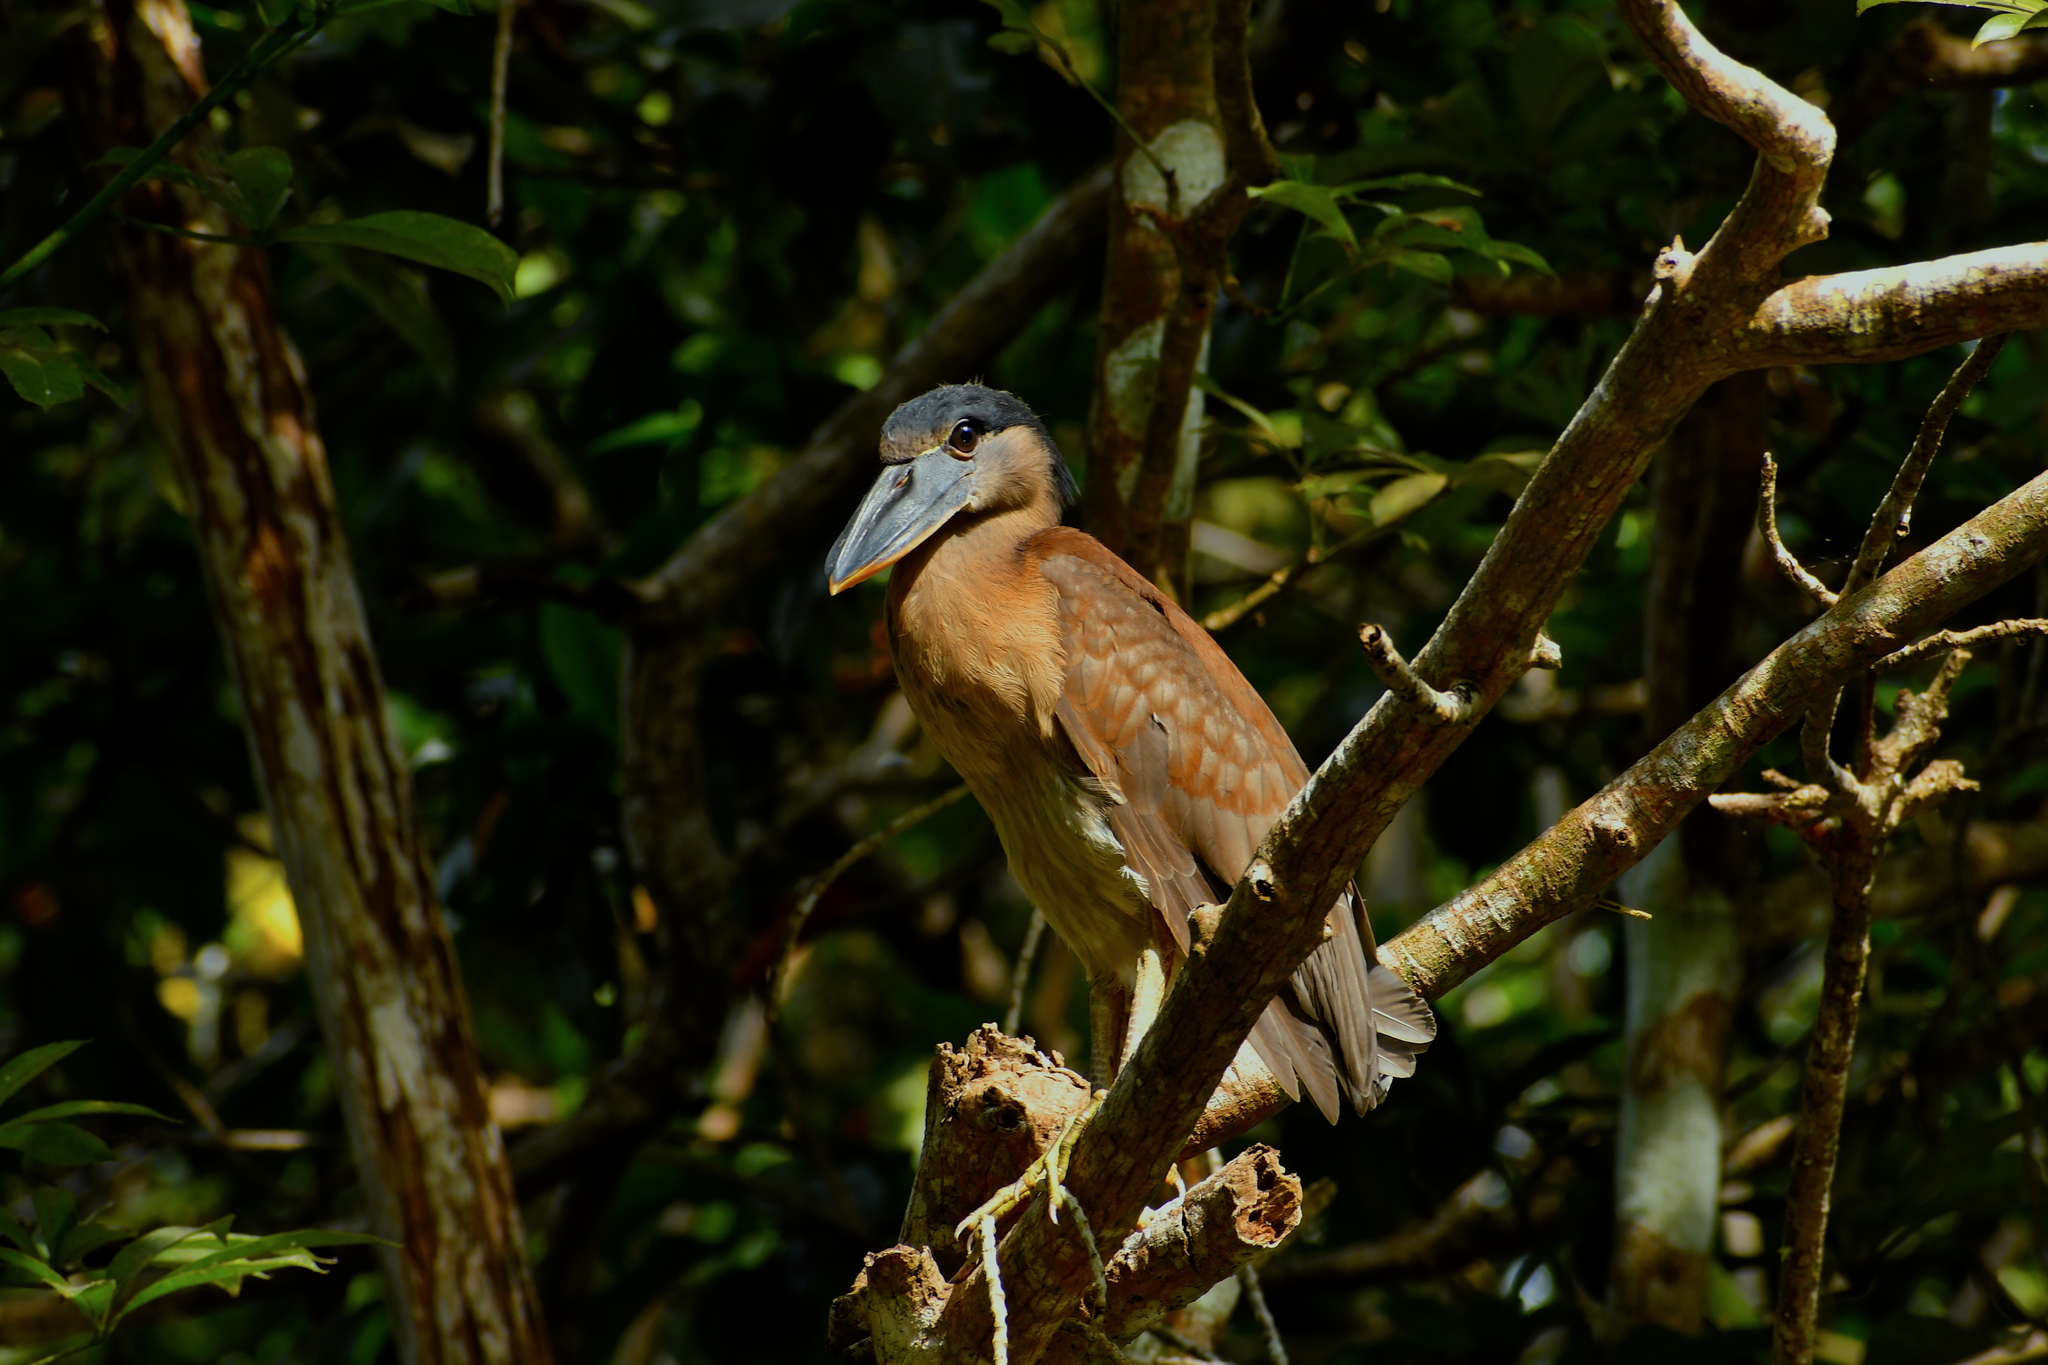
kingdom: Animalia
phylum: Chordata
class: Aves
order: Pelecaniformes
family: Ardeidae
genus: Cochlearius
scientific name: Cochlearius cochlearius
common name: Boat-billed heron
